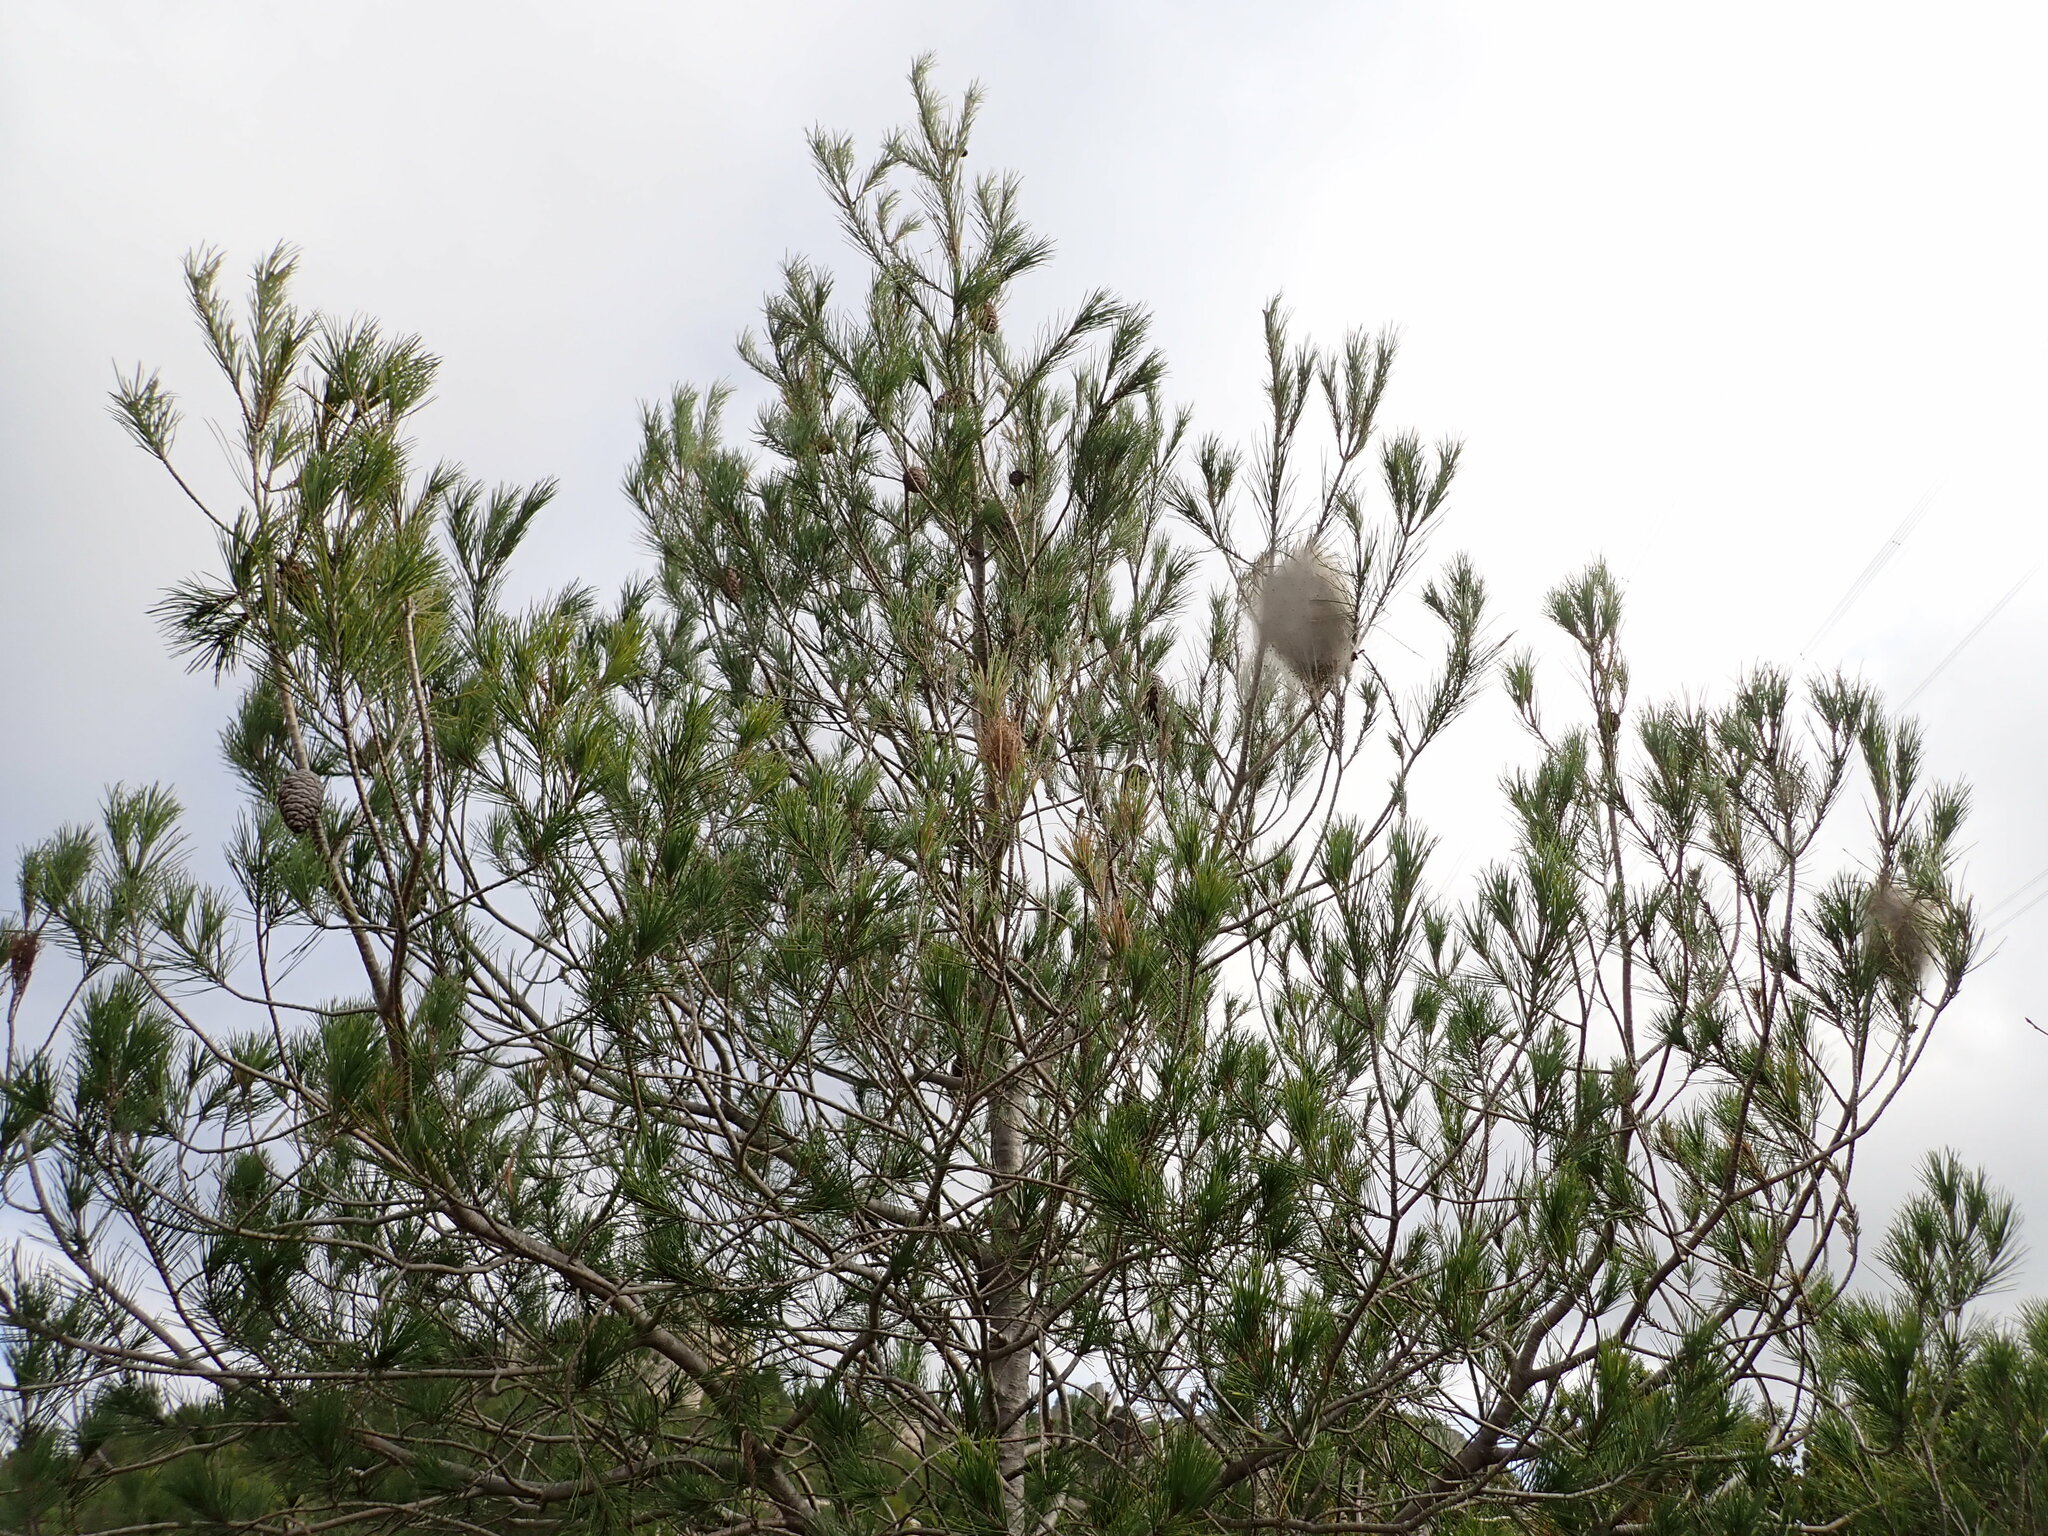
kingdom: Animalia
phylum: Arthropoda
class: Insecta
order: Lepidoptera
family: Notodontidae
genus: Thaumetopoea
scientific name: Thaumetopoea pityocampa
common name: Pine processionary
